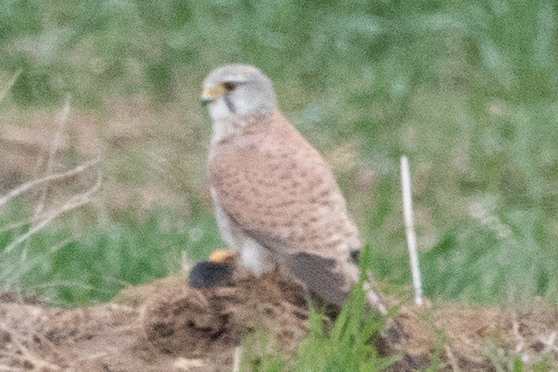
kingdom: Animalia
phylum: Chordata
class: Aves
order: Falconiformes
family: Falconidae
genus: Falco
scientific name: Falco tinnunculus
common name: Common kestrel
